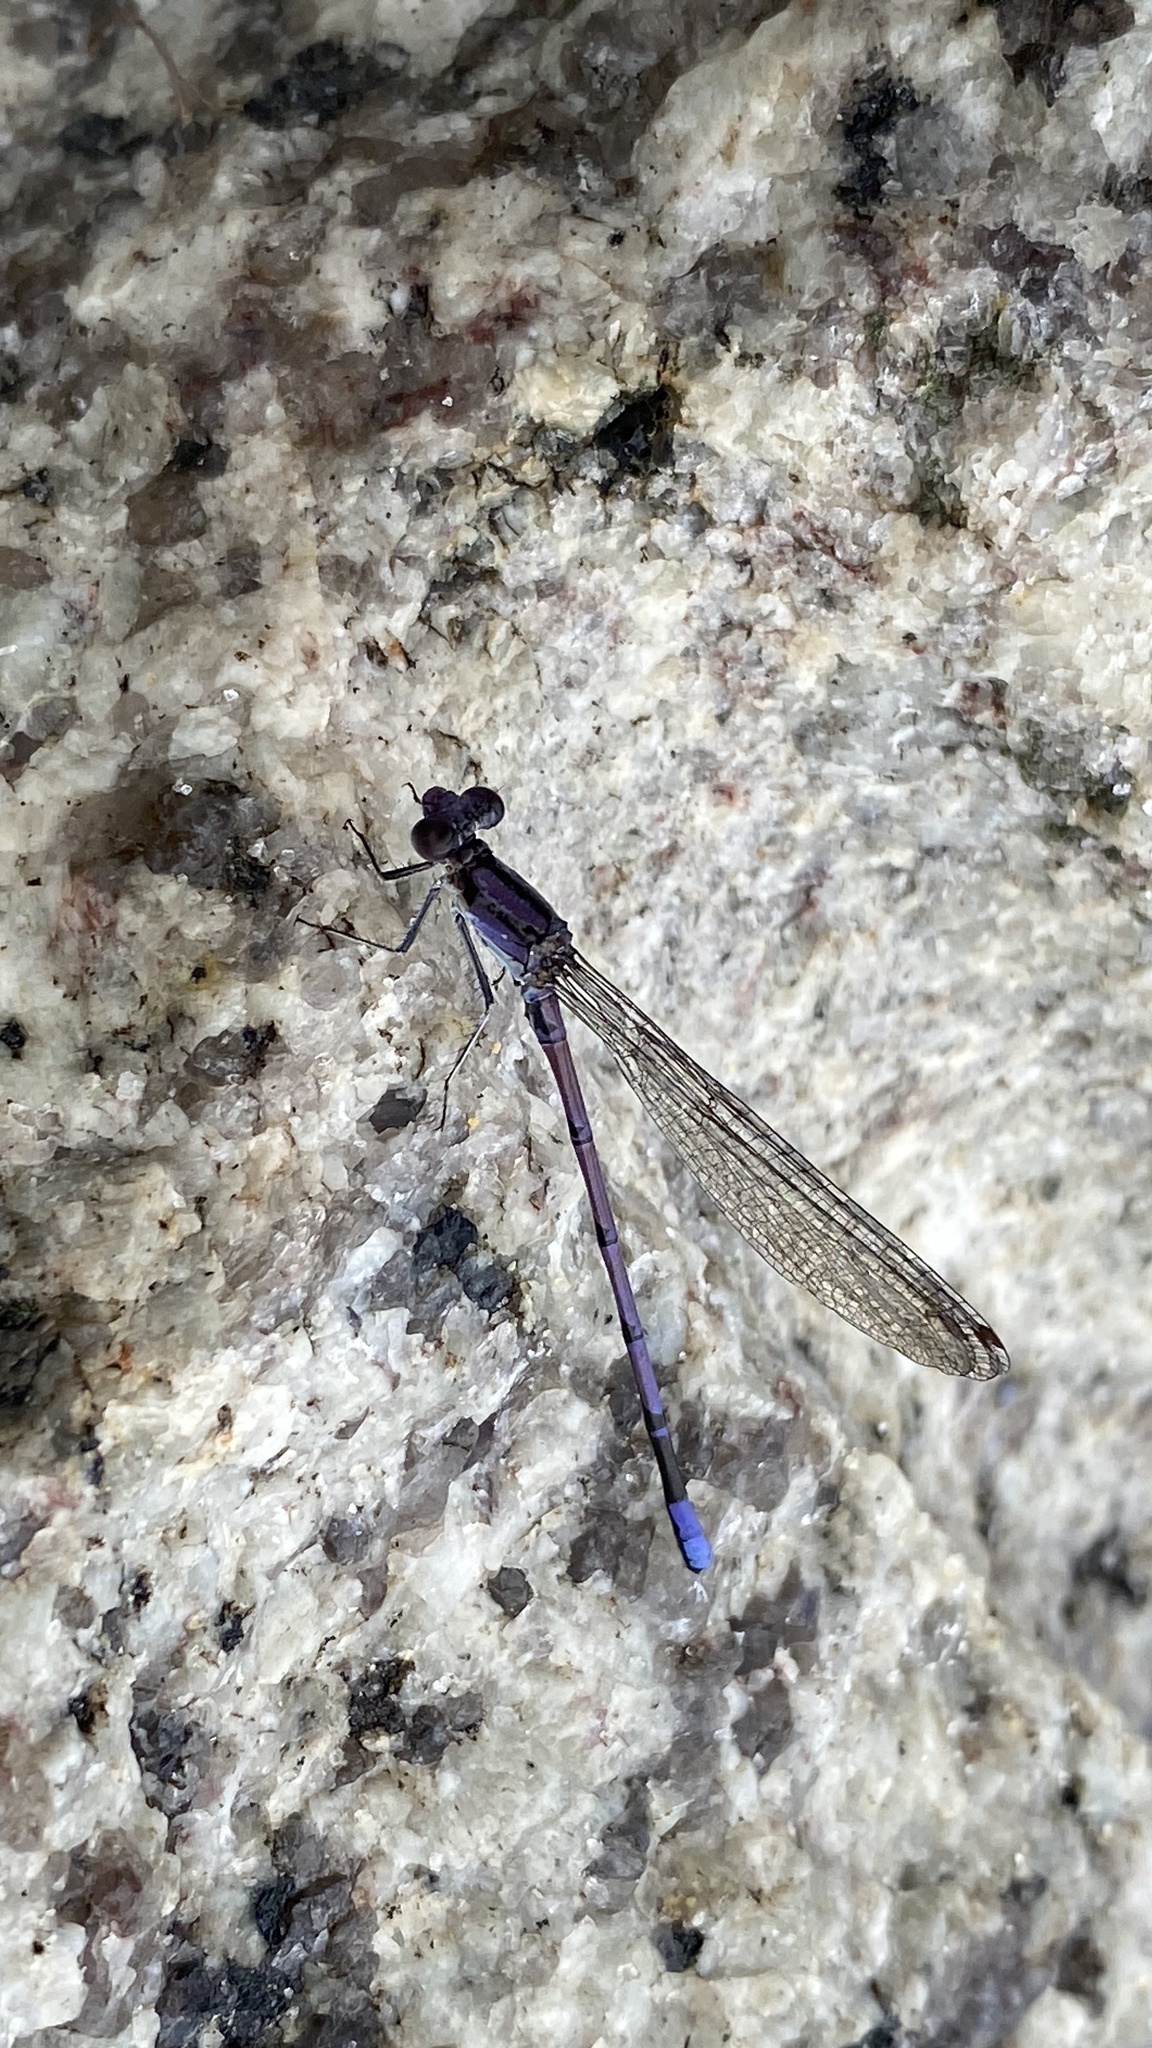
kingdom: Animalia
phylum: Arthropoda
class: Insecta
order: Odonata
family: Coenagrionidae
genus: Argia
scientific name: Argia fumipennis
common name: Variable dancer
